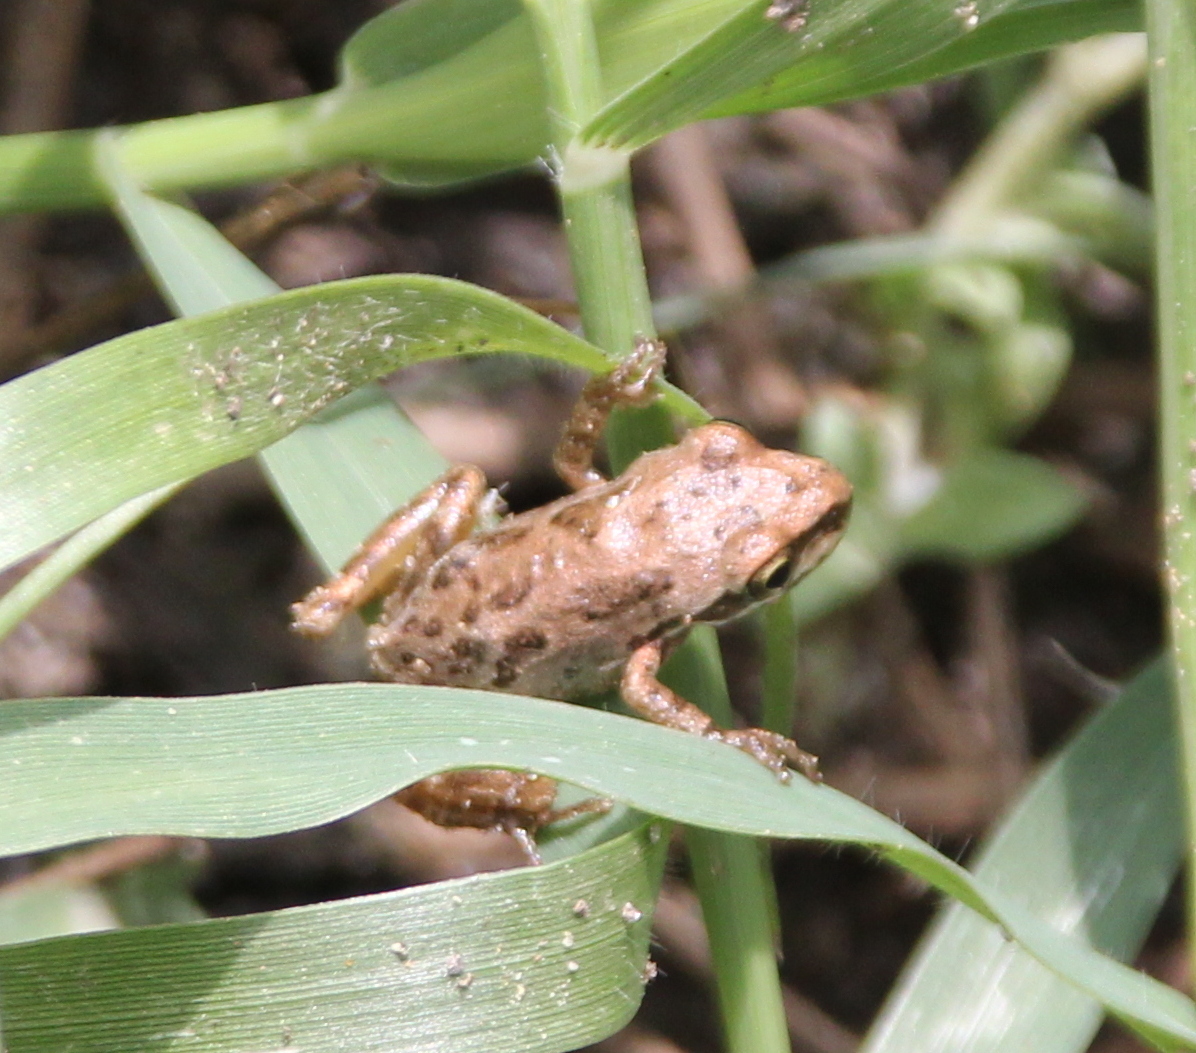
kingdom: Animalia
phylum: Chordata
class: Amphibia
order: Anura
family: Hylidae
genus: Pseudacris
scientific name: Pseudacris regilla
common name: Pacific chorus frog
